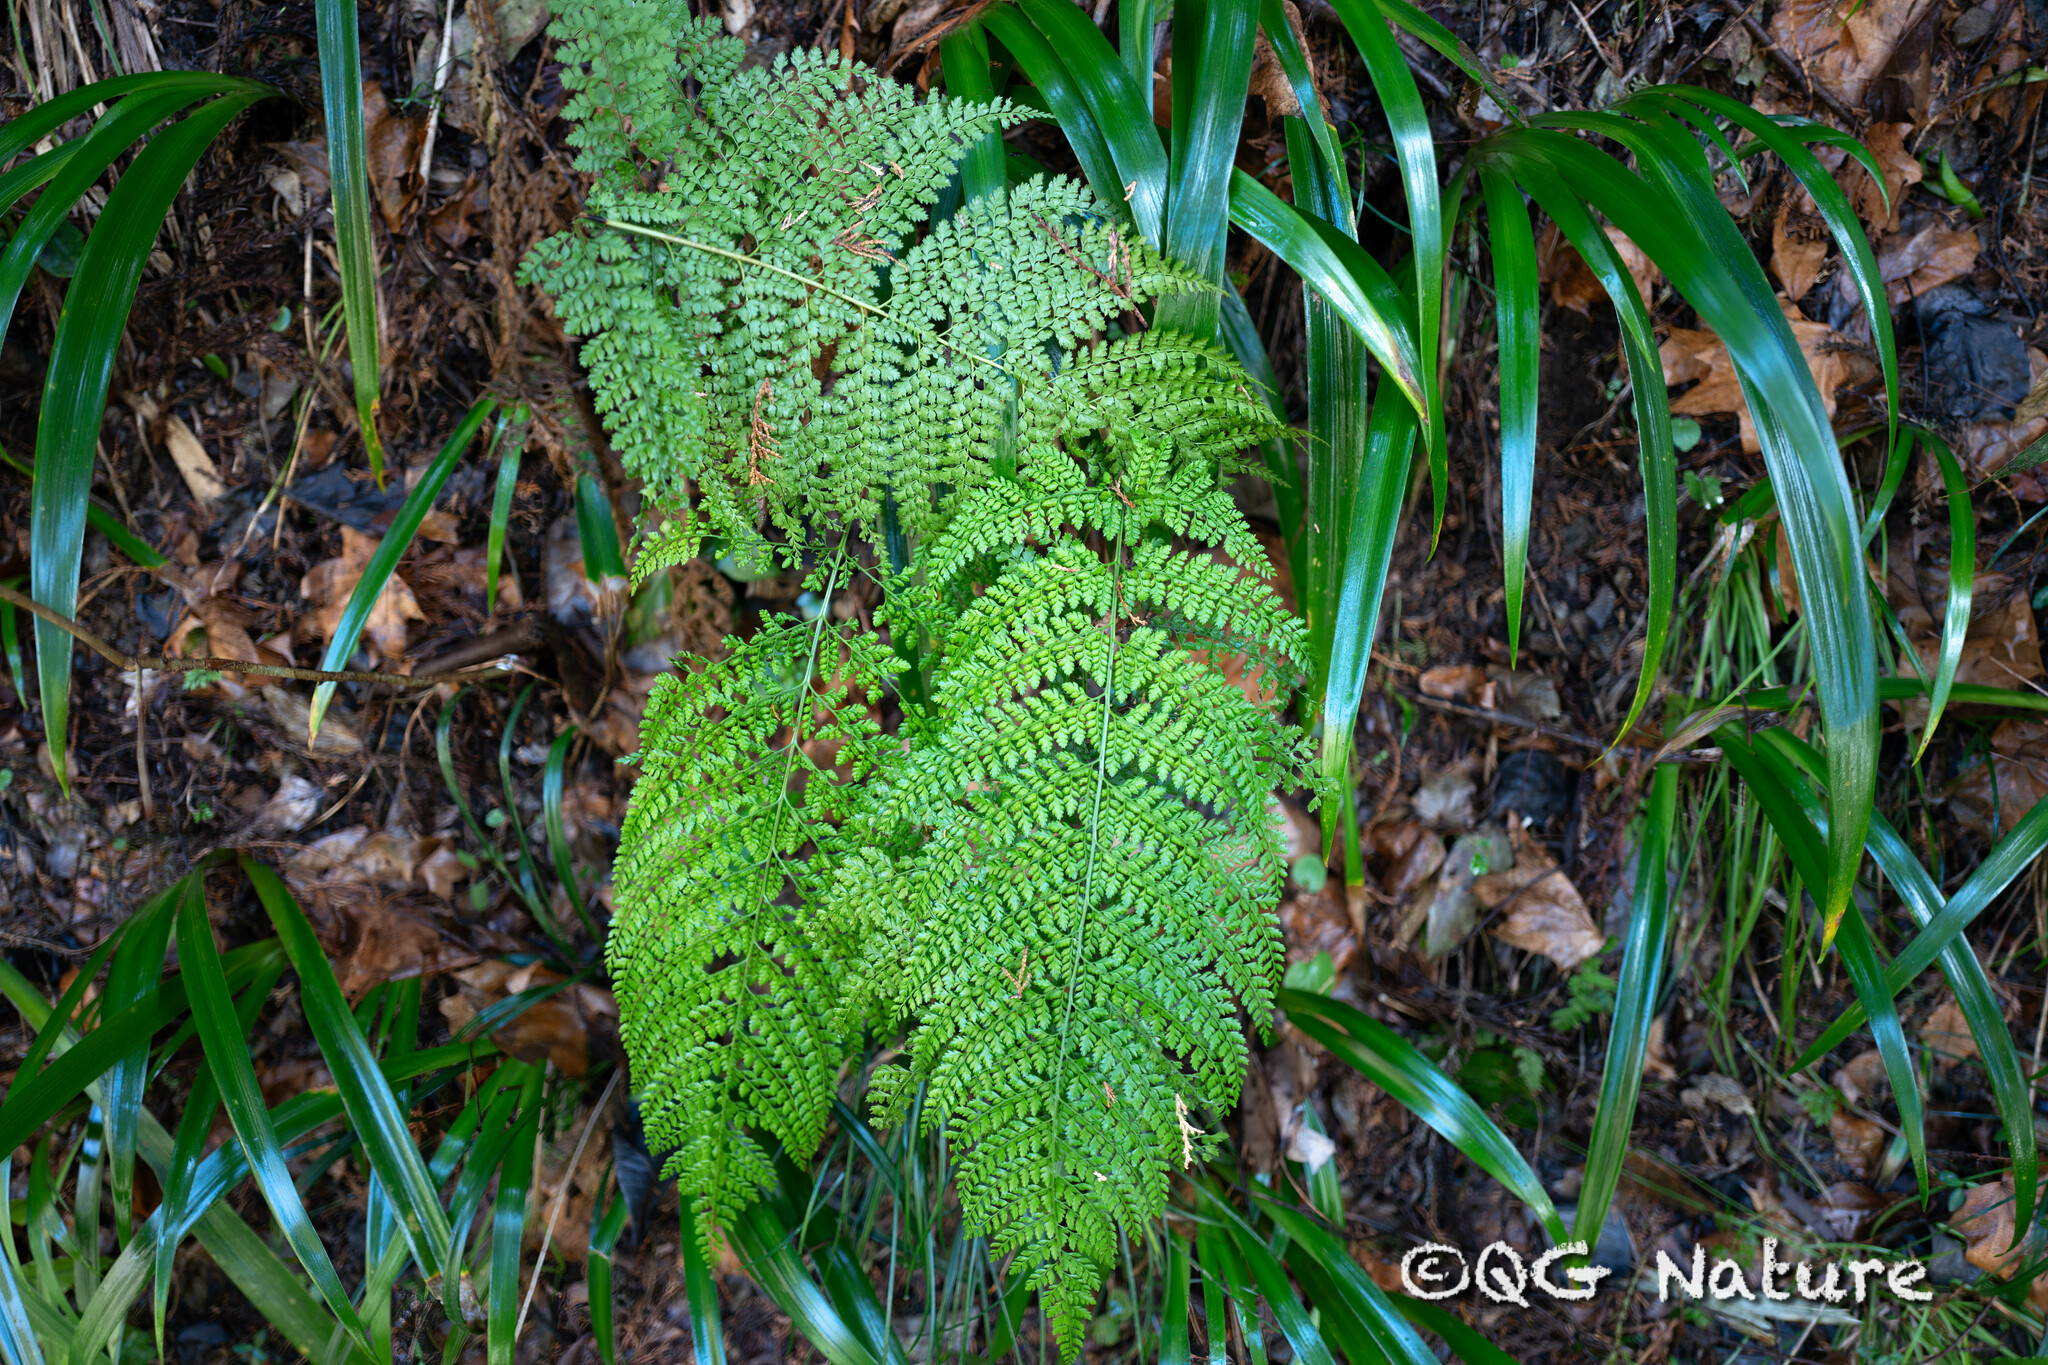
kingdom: Plantae
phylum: Tracheophyta
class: Polypodiopsida
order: Polypodiales
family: Dryopteridaceae
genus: Arachniodes
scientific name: Arachniodes standishii
